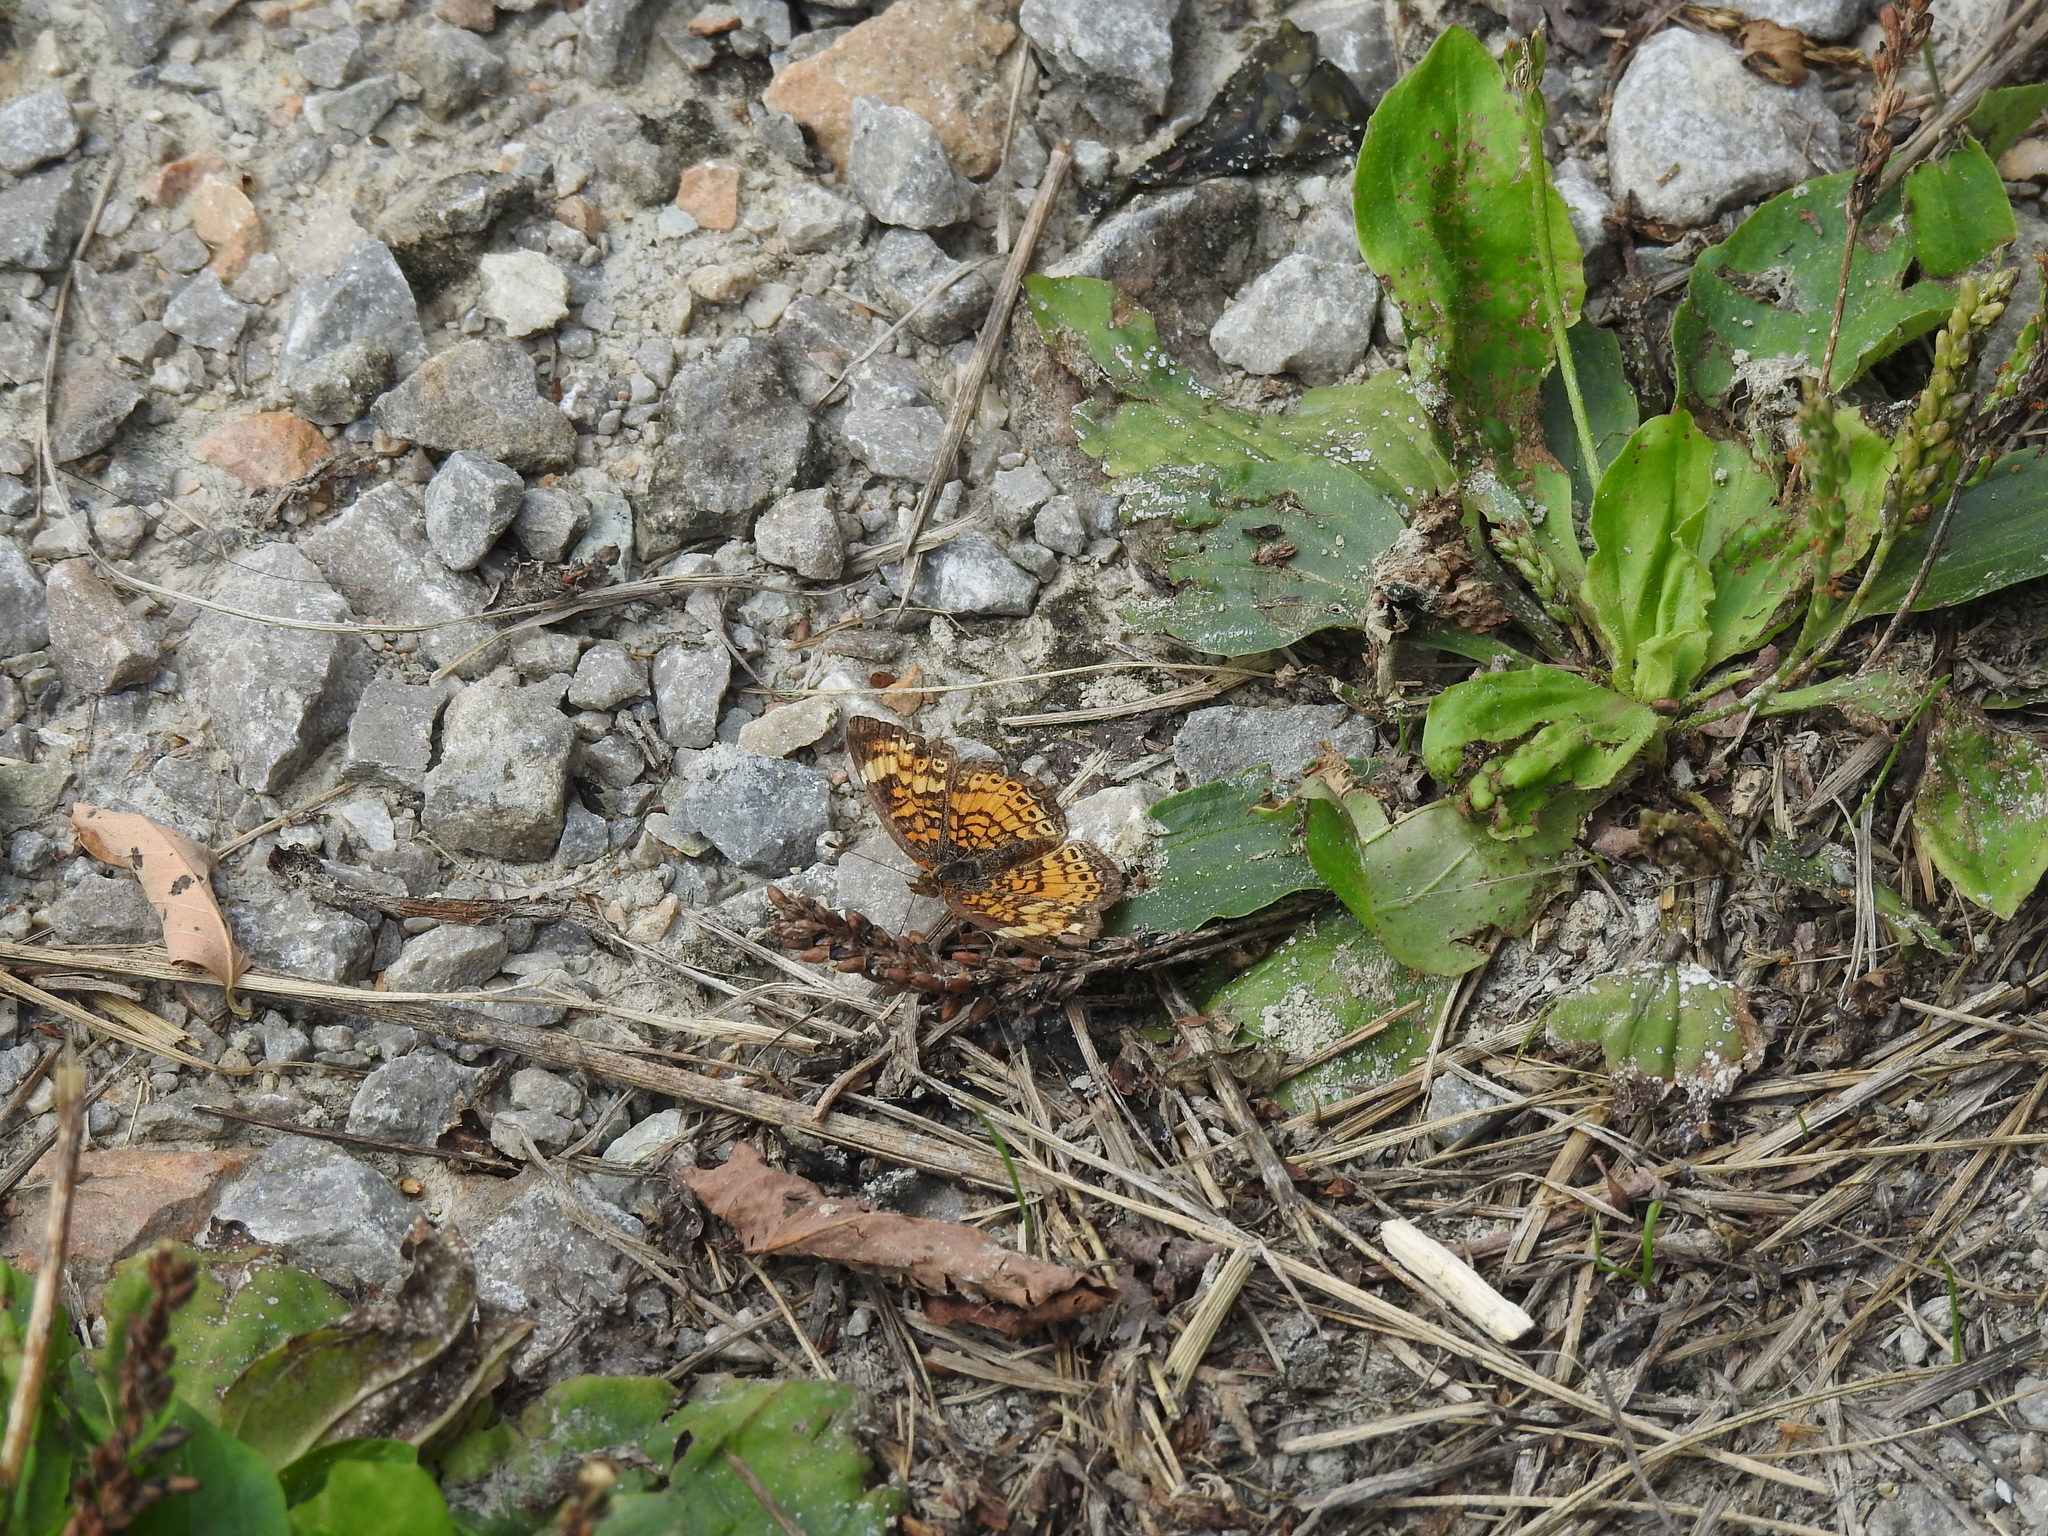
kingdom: Animalia
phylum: Arthropoda
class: Insecta
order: Lepidoptera
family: Nymphalidae
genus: Phyciodes
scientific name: Phyciodes tharos
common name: Pearl crescent
